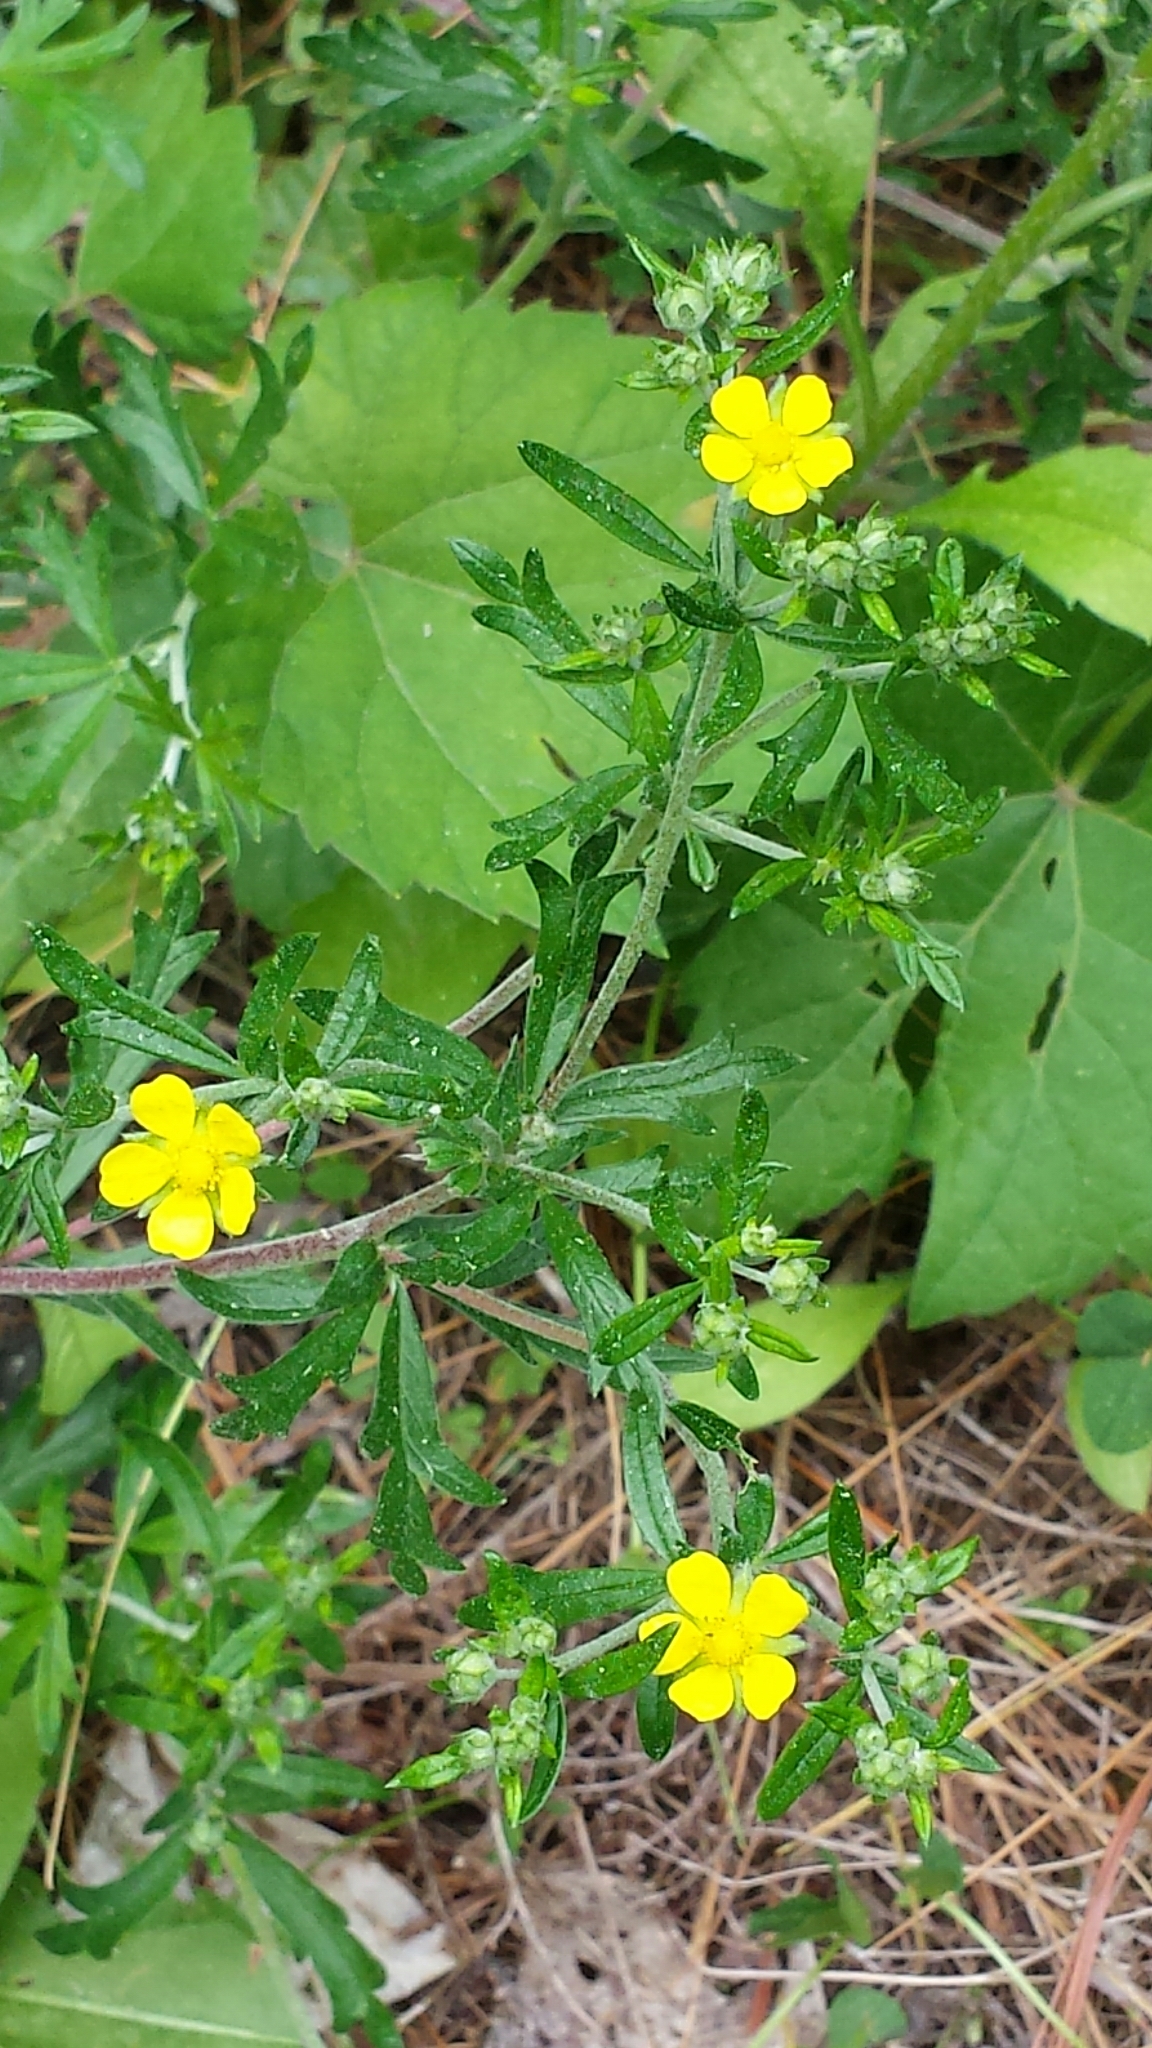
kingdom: Plantae
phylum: Tracheophyta
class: Magnoliopsida
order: Rosales
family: Rosaceae
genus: Potentilla
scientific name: Potentilla argentea
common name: Hoary cinquefoil
